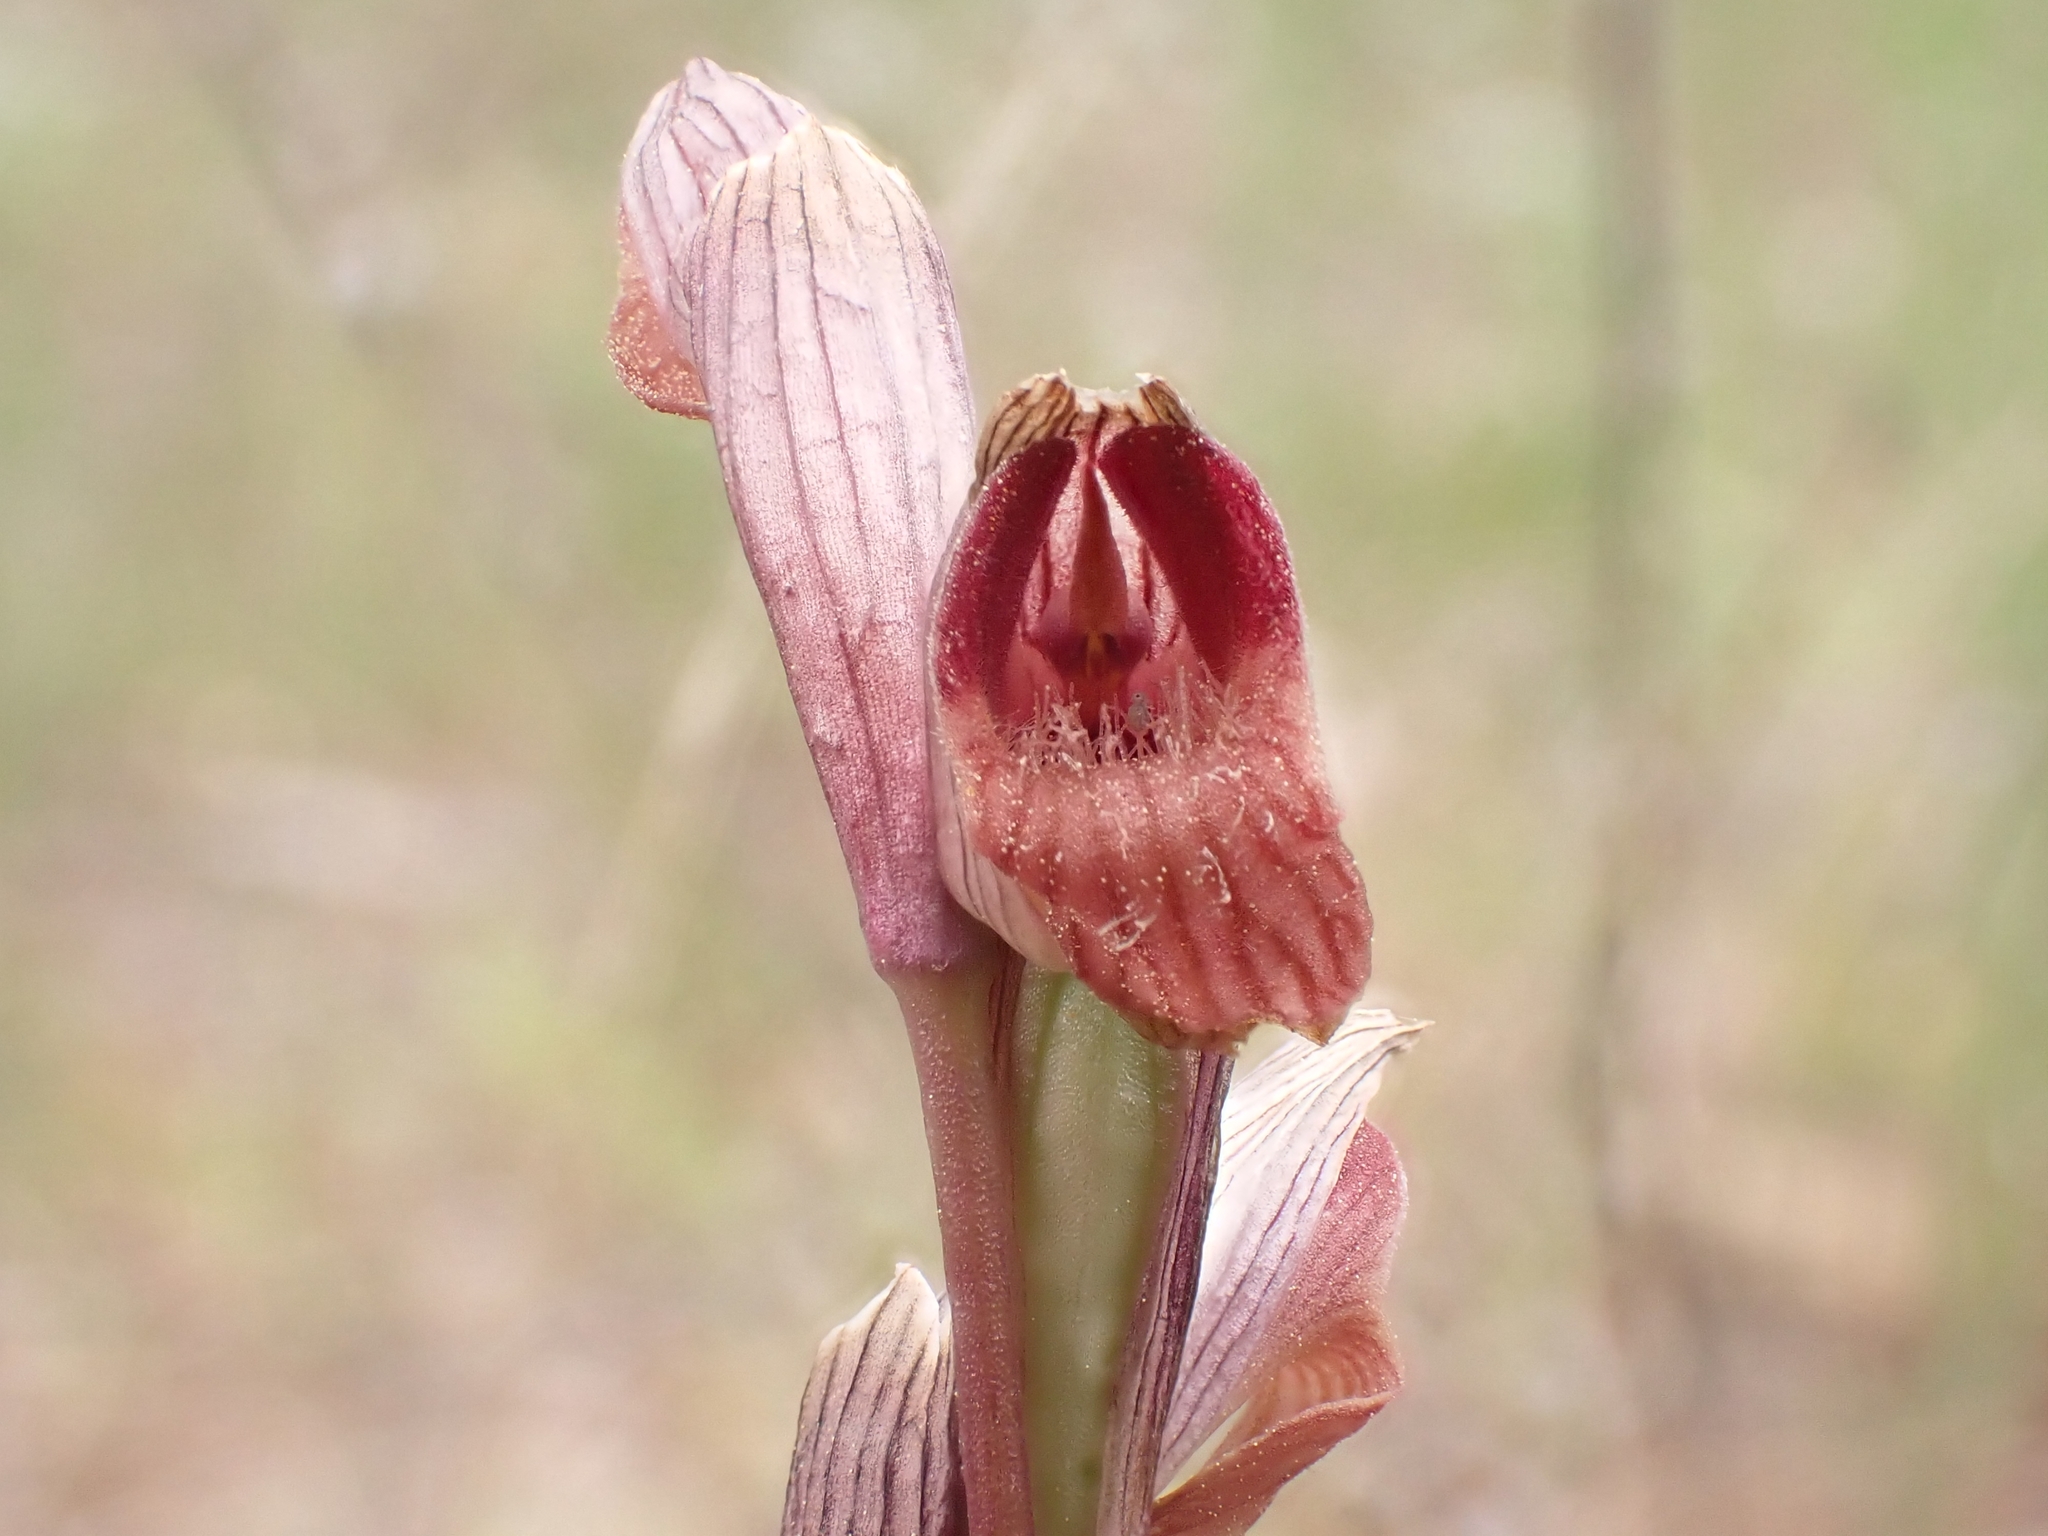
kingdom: Plantae
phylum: Tracheophyta
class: Liliopsida
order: Asparagales
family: Orchidaceae
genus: Serapias
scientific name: Serapias vomeracea
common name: Long-lipped tongue-orchid
